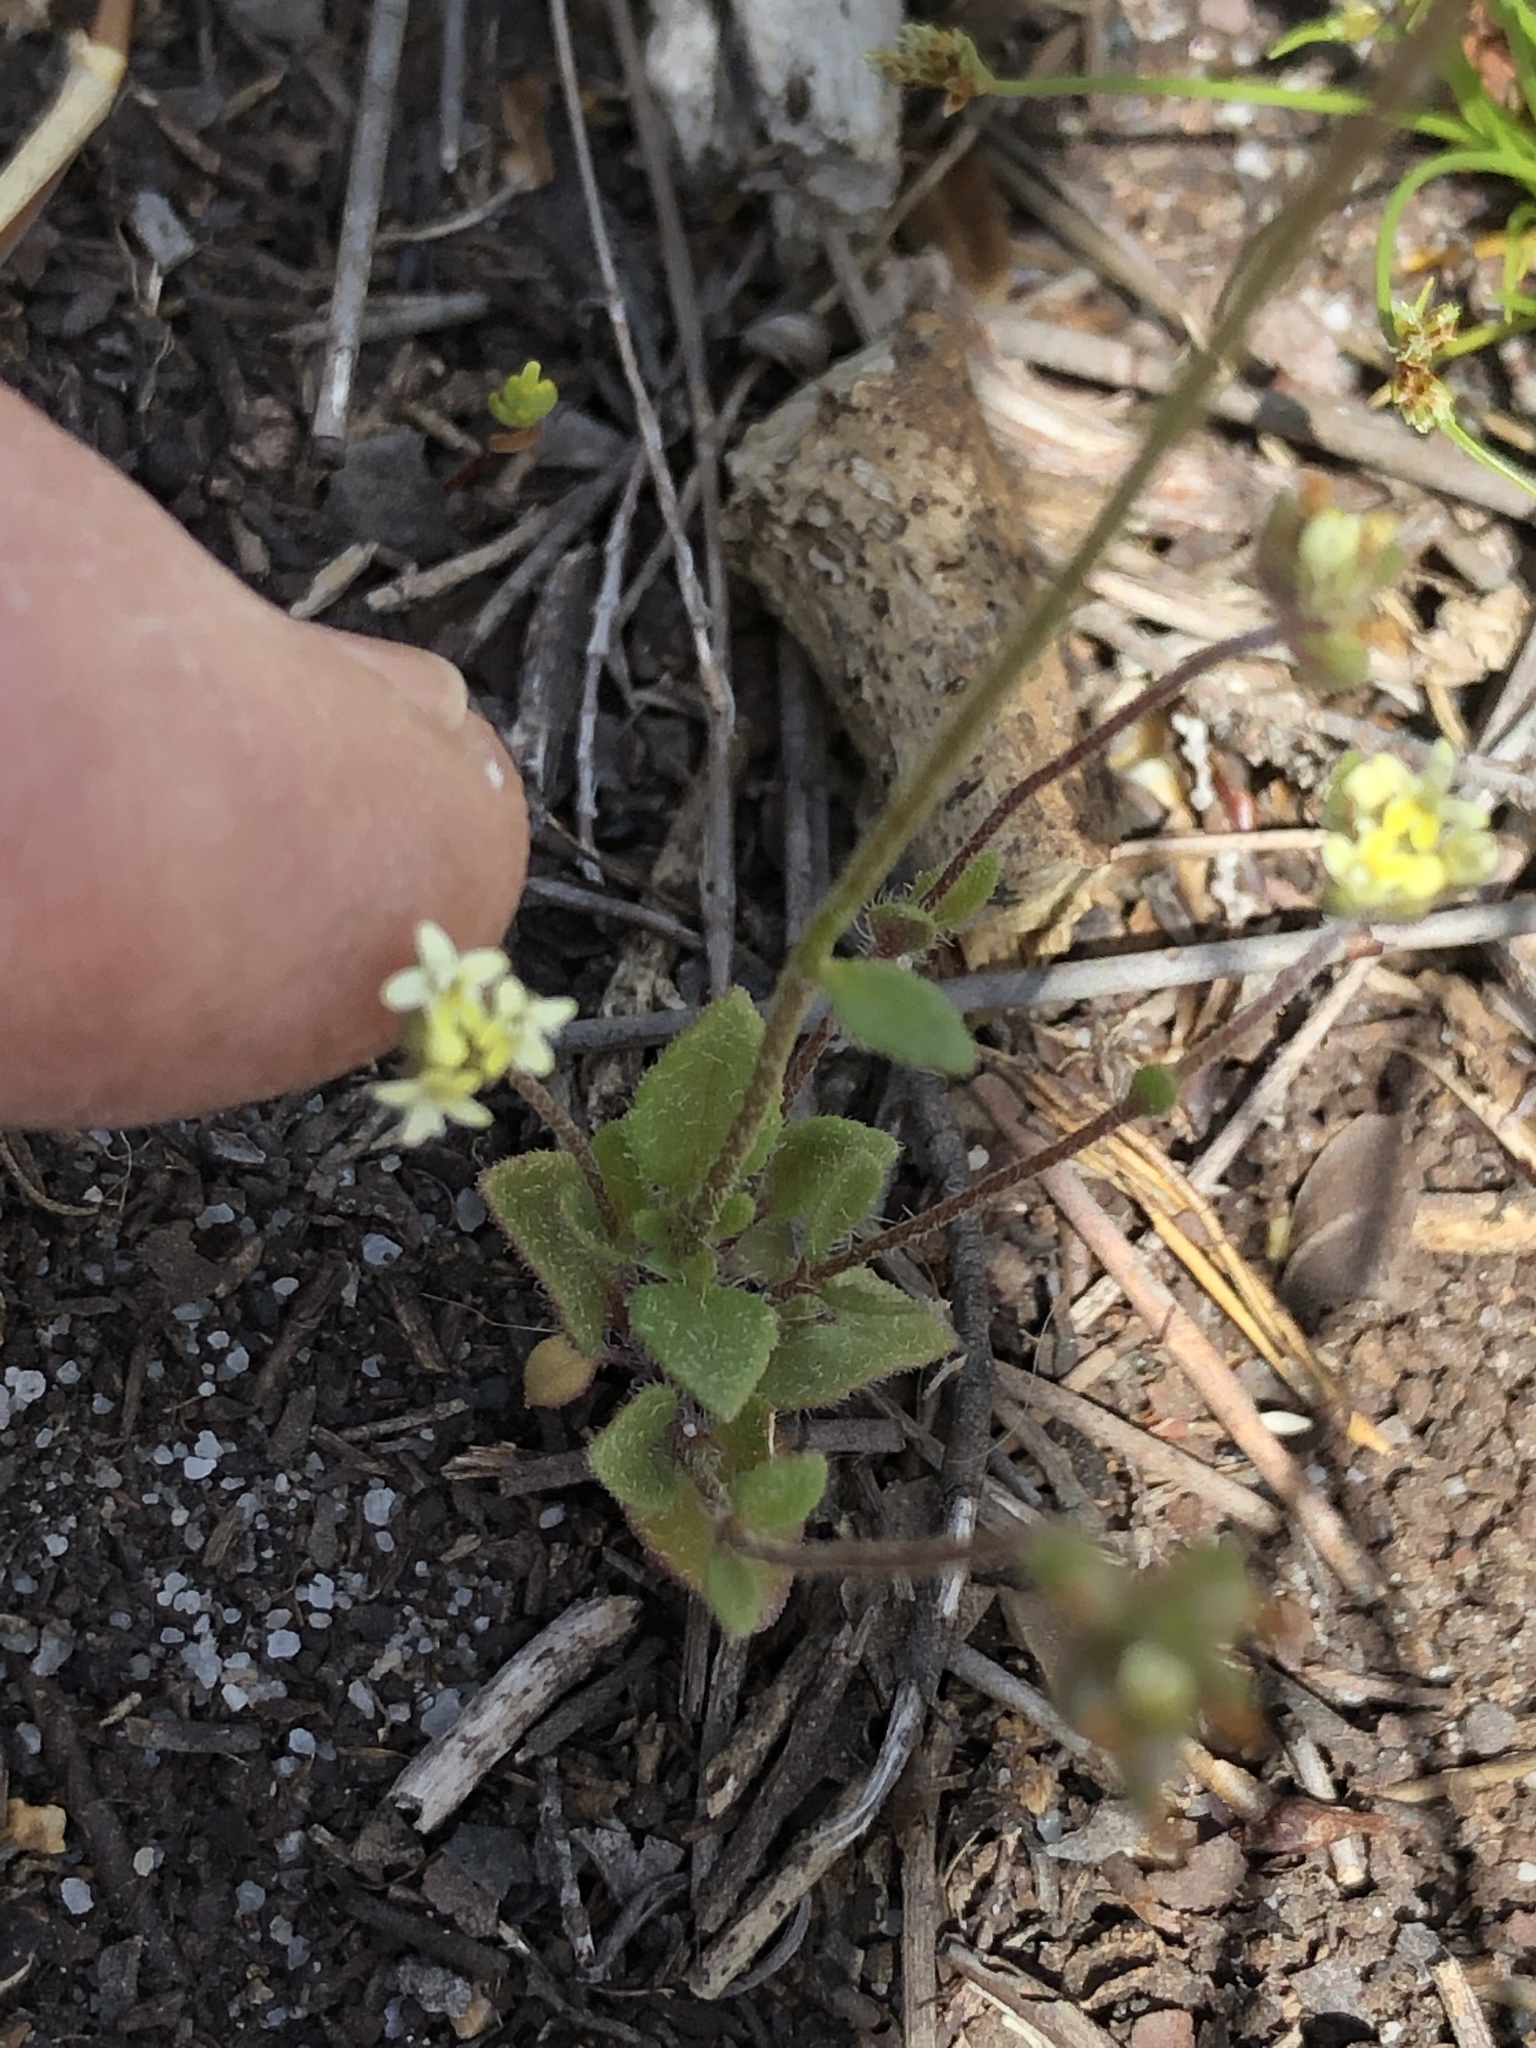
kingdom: Plantae
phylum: Tracheophyta
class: Magnoliopsida
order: Lamiales
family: Scrophulariaceae
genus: Phyllopodium
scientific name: Phyllopodium heterophyllum
